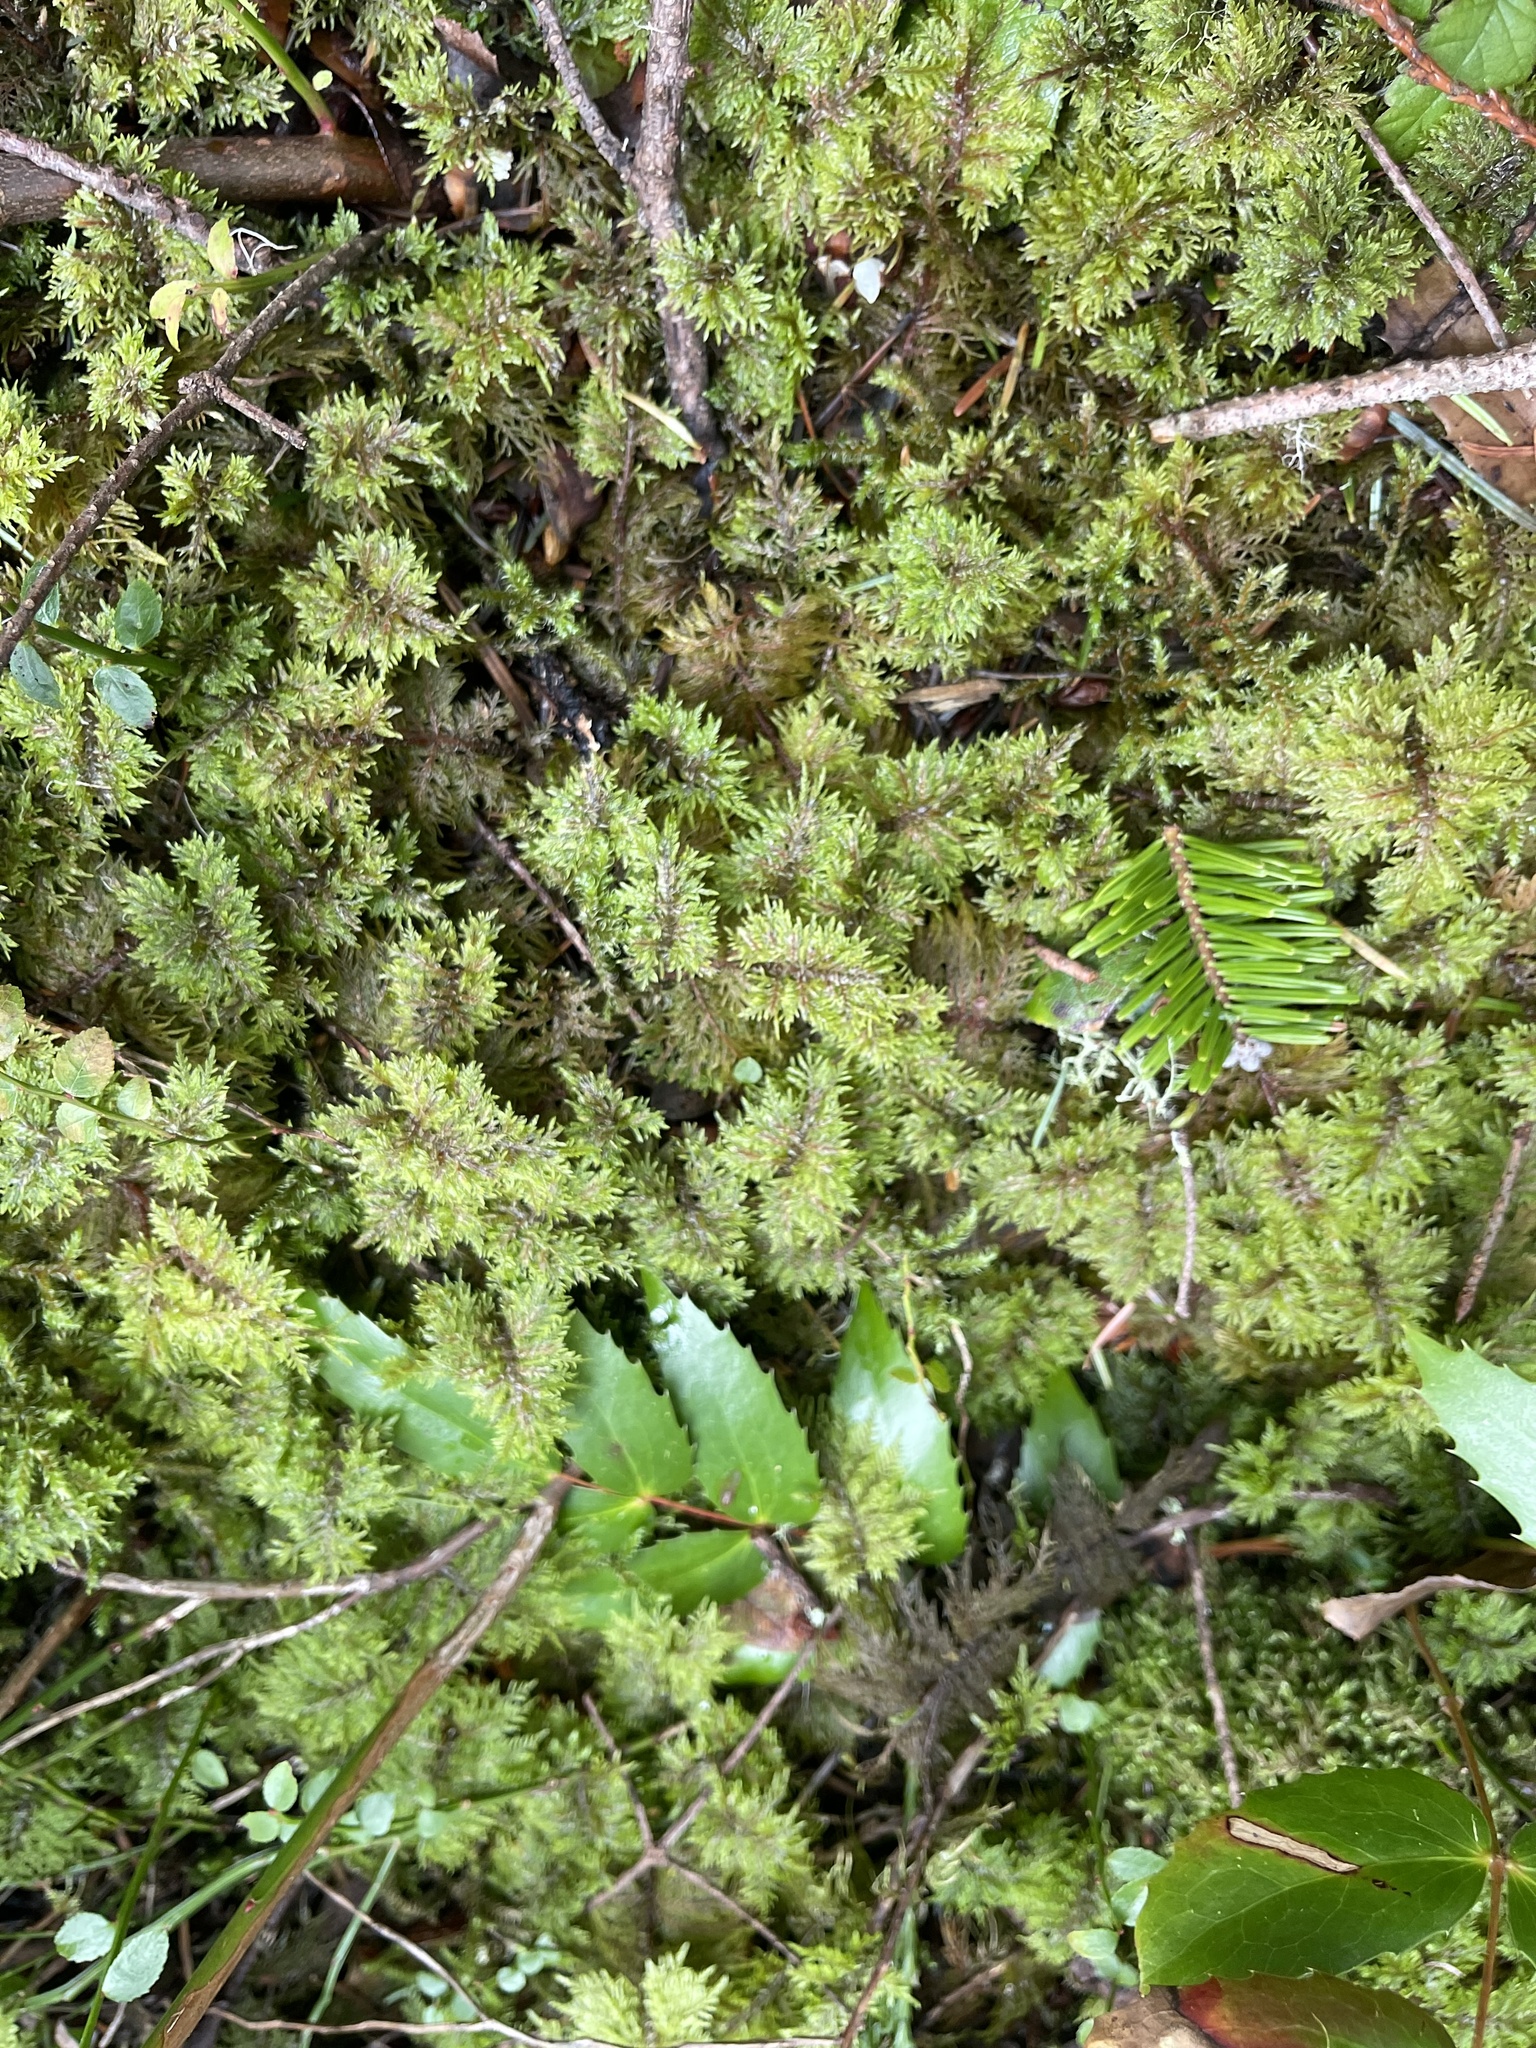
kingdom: Plantae
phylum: Bryophyta
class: Bryopsida
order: Hypnales
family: Hylocomiaceae
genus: Hylocomium
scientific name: Hylocomium splendens
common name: Stairstep moss
